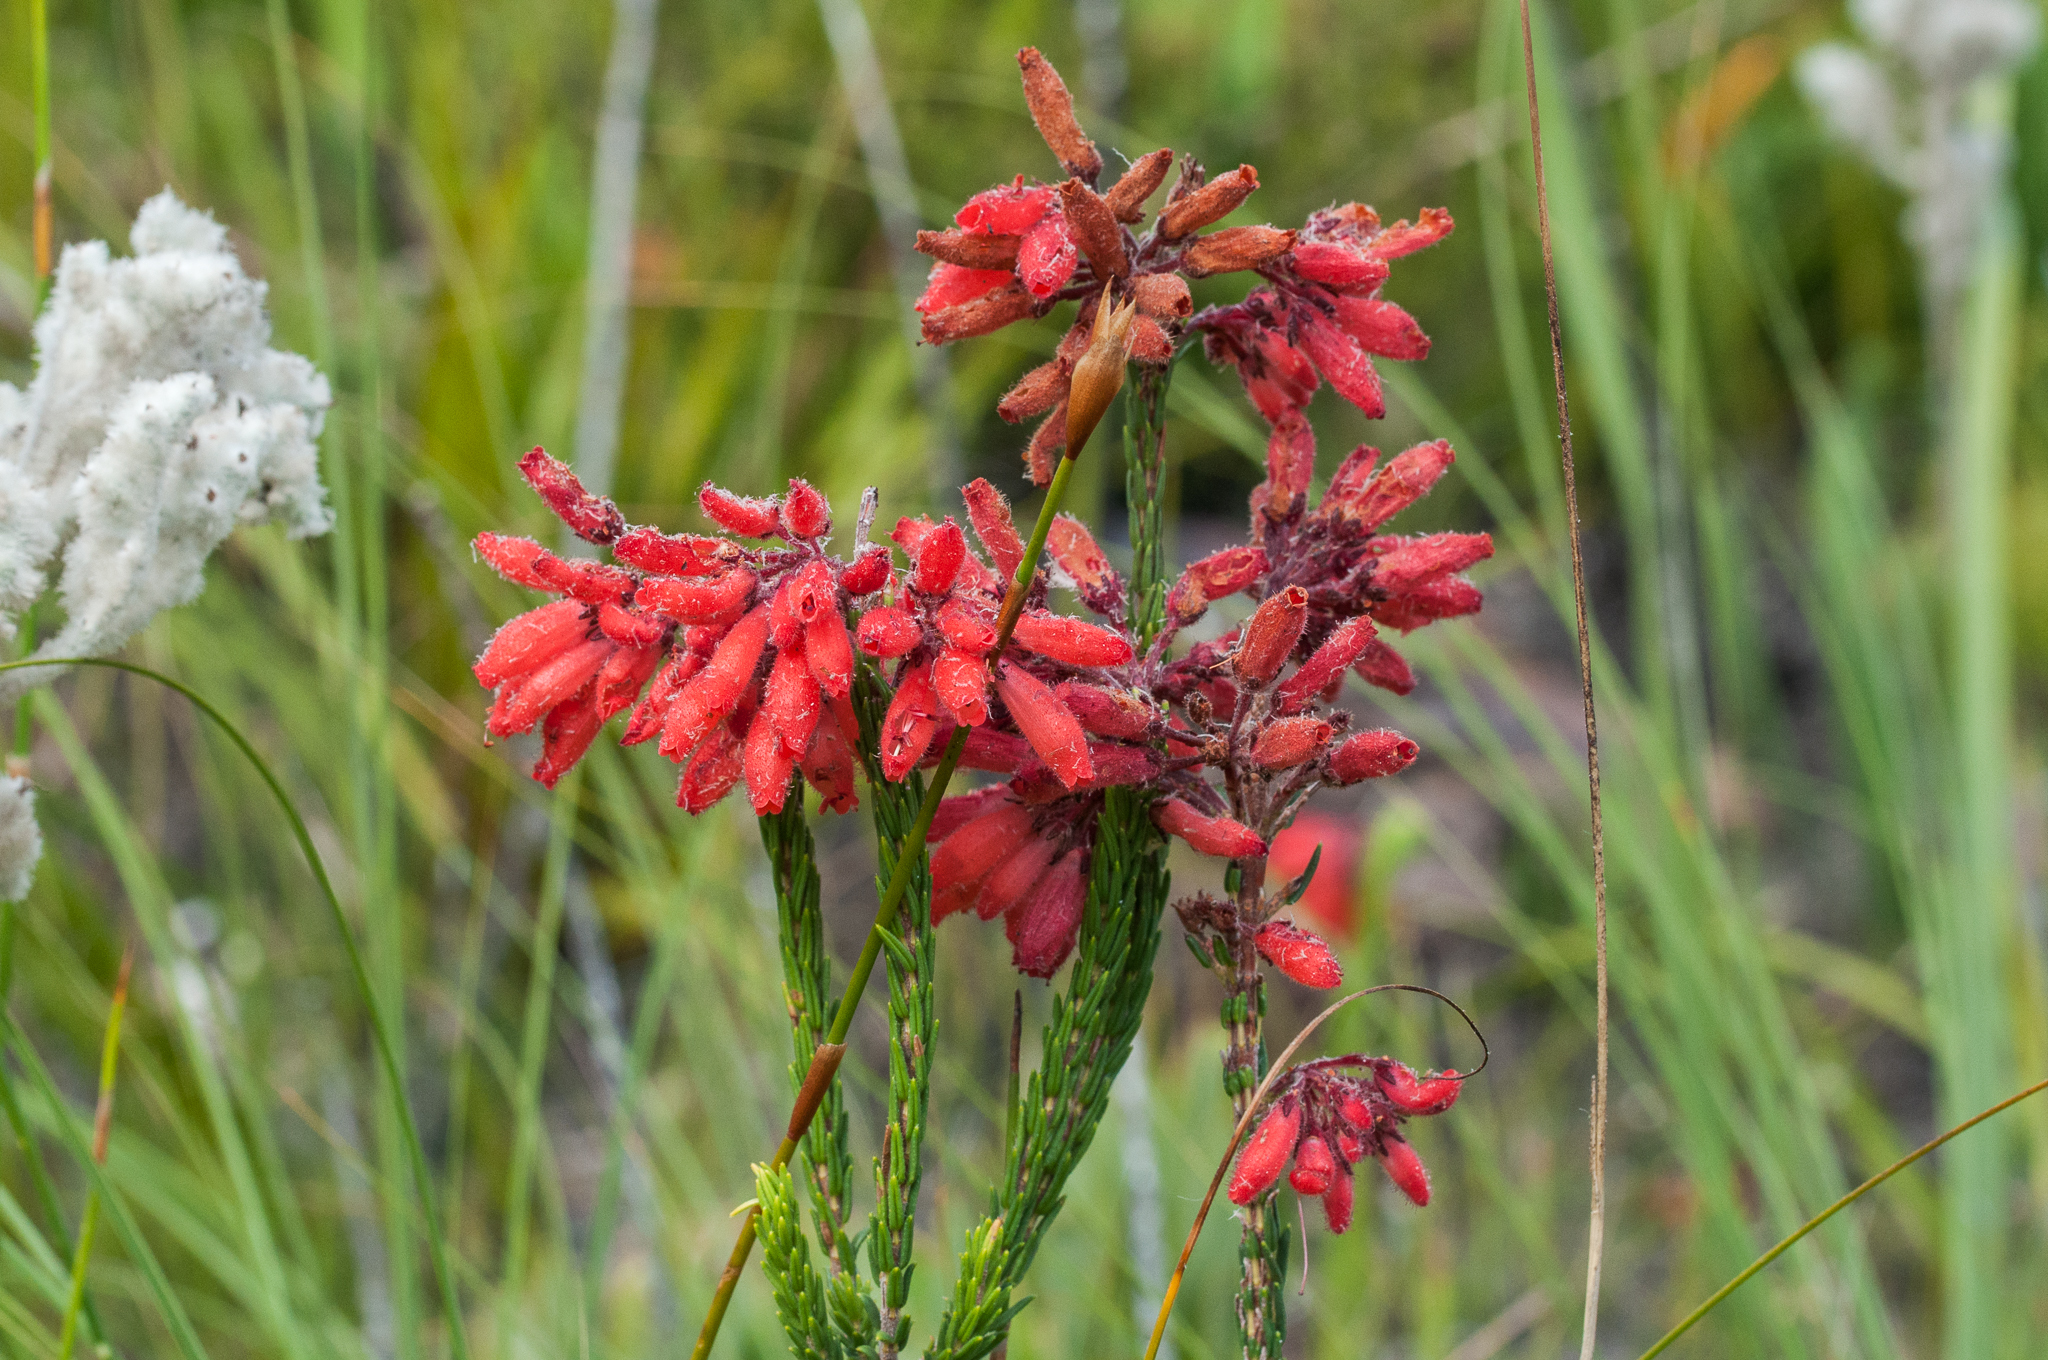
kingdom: Plantae
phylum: Tracheophyta
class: Magnoliopsida
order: Ericales
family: Ericaceae
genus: Erica
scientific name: Erica cerinthoides
